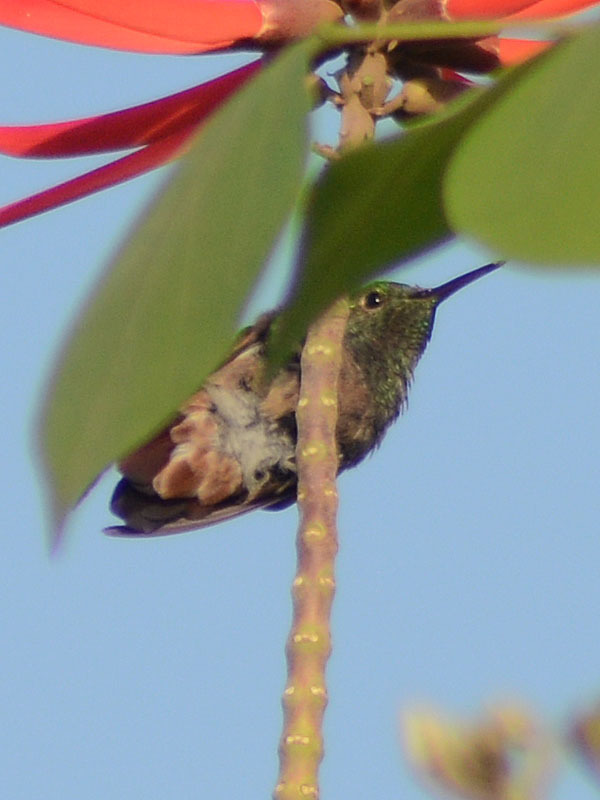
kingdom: Animalia
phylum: Chordata
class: Aves
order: Apodiformes
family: Trochilidae
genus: Saucerottia
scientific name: Saucerottia beryllina
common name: Berylline hummingbird
